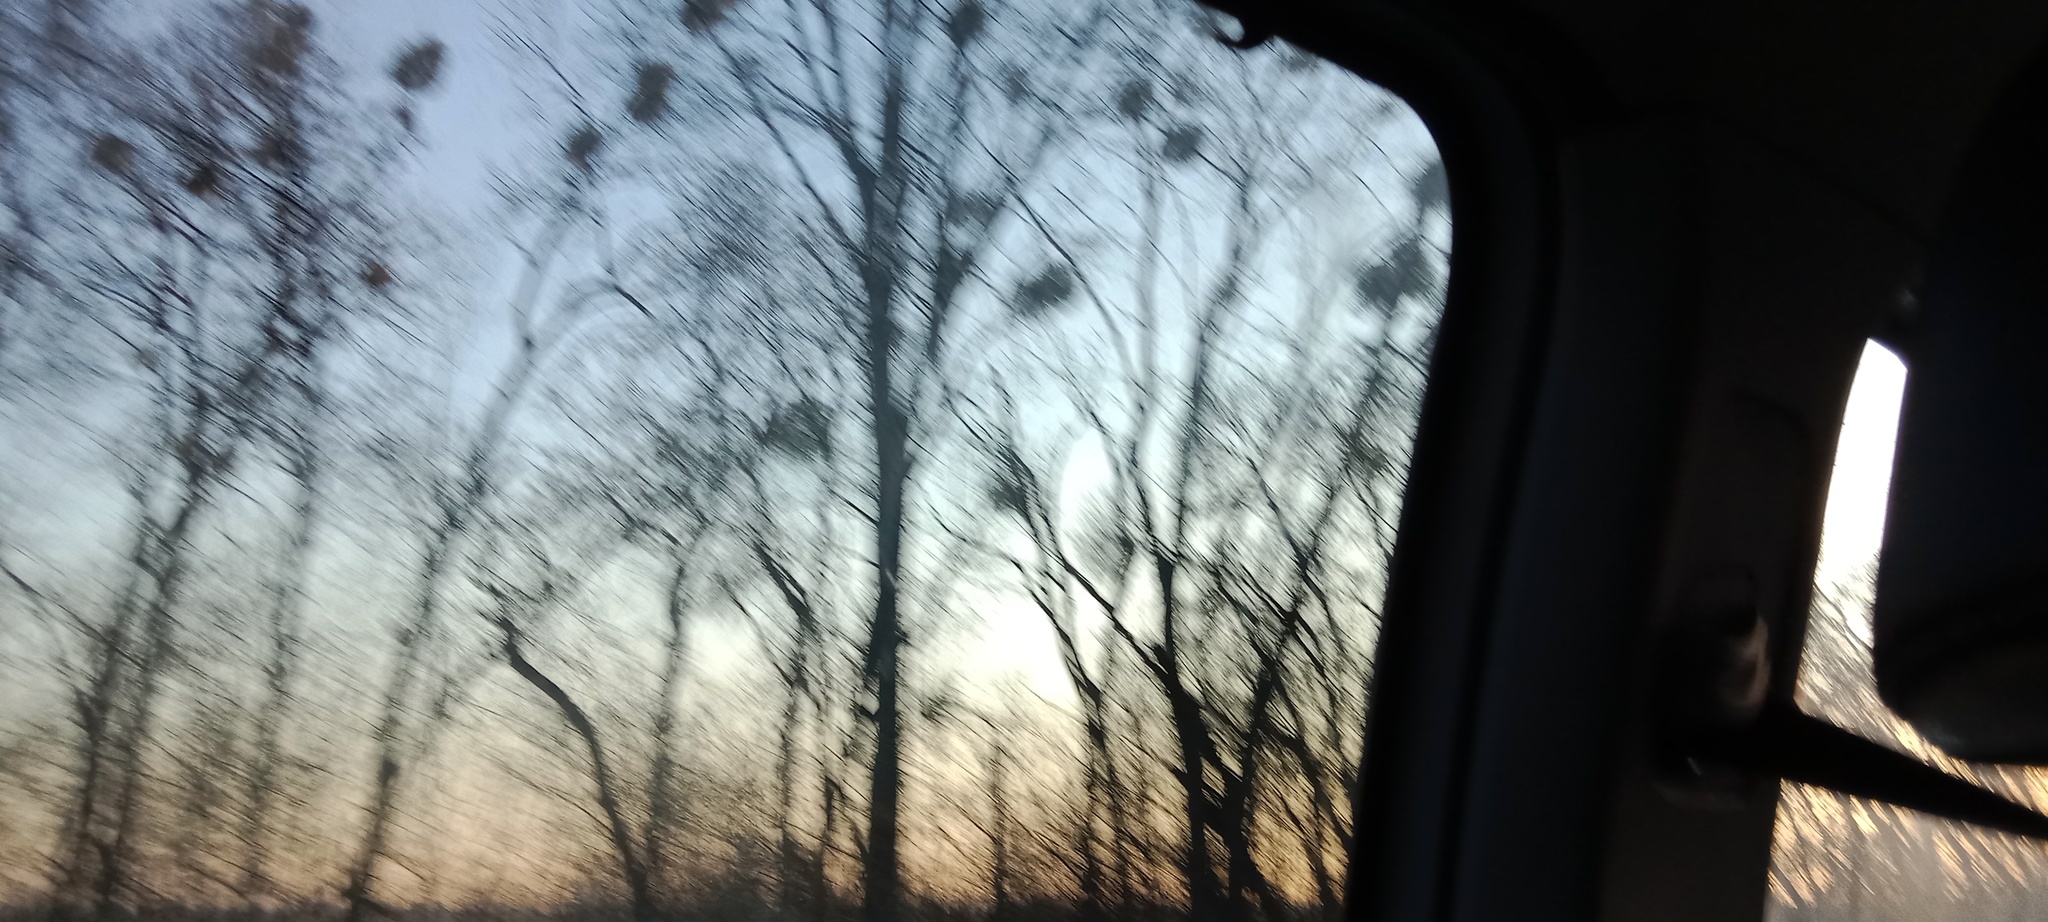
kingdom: Plantae
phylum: Tracheophyta
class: Magnoliopsida
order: Santalales
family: Viscaceae
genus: Viscum
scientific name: Viscum album
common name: Mistletoe
